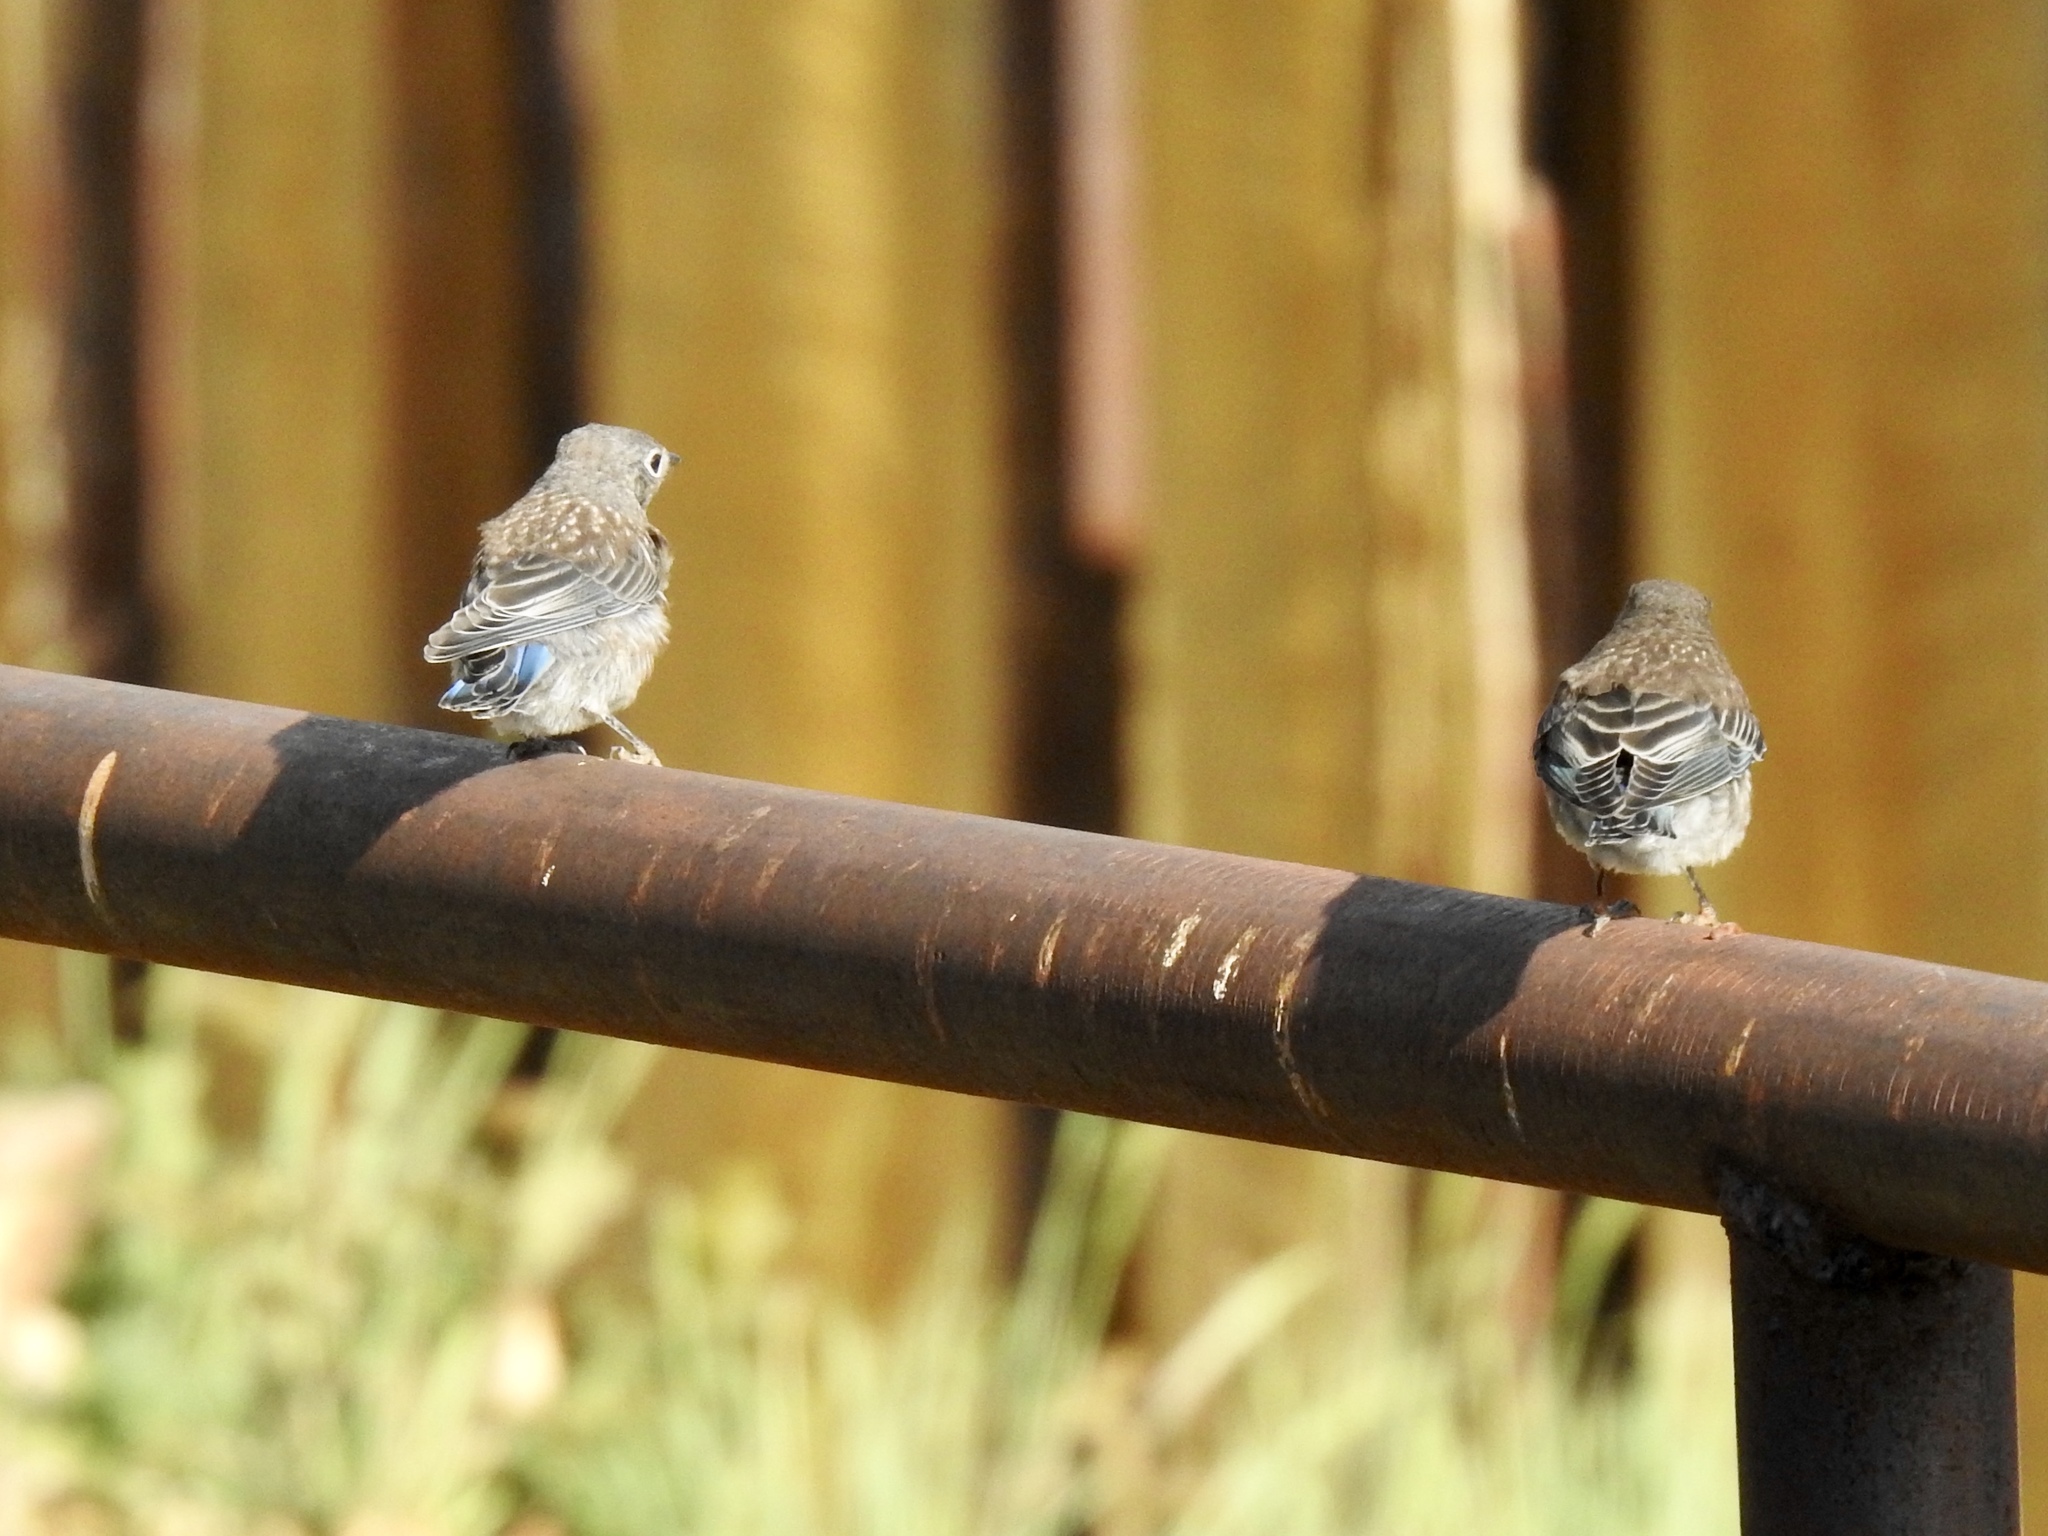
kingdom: Animalia
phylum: Chordata
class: Aves
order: Passeriformes
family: Turdidae
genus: Sialia
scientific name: Sialia mexicana
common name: Western bluebird
